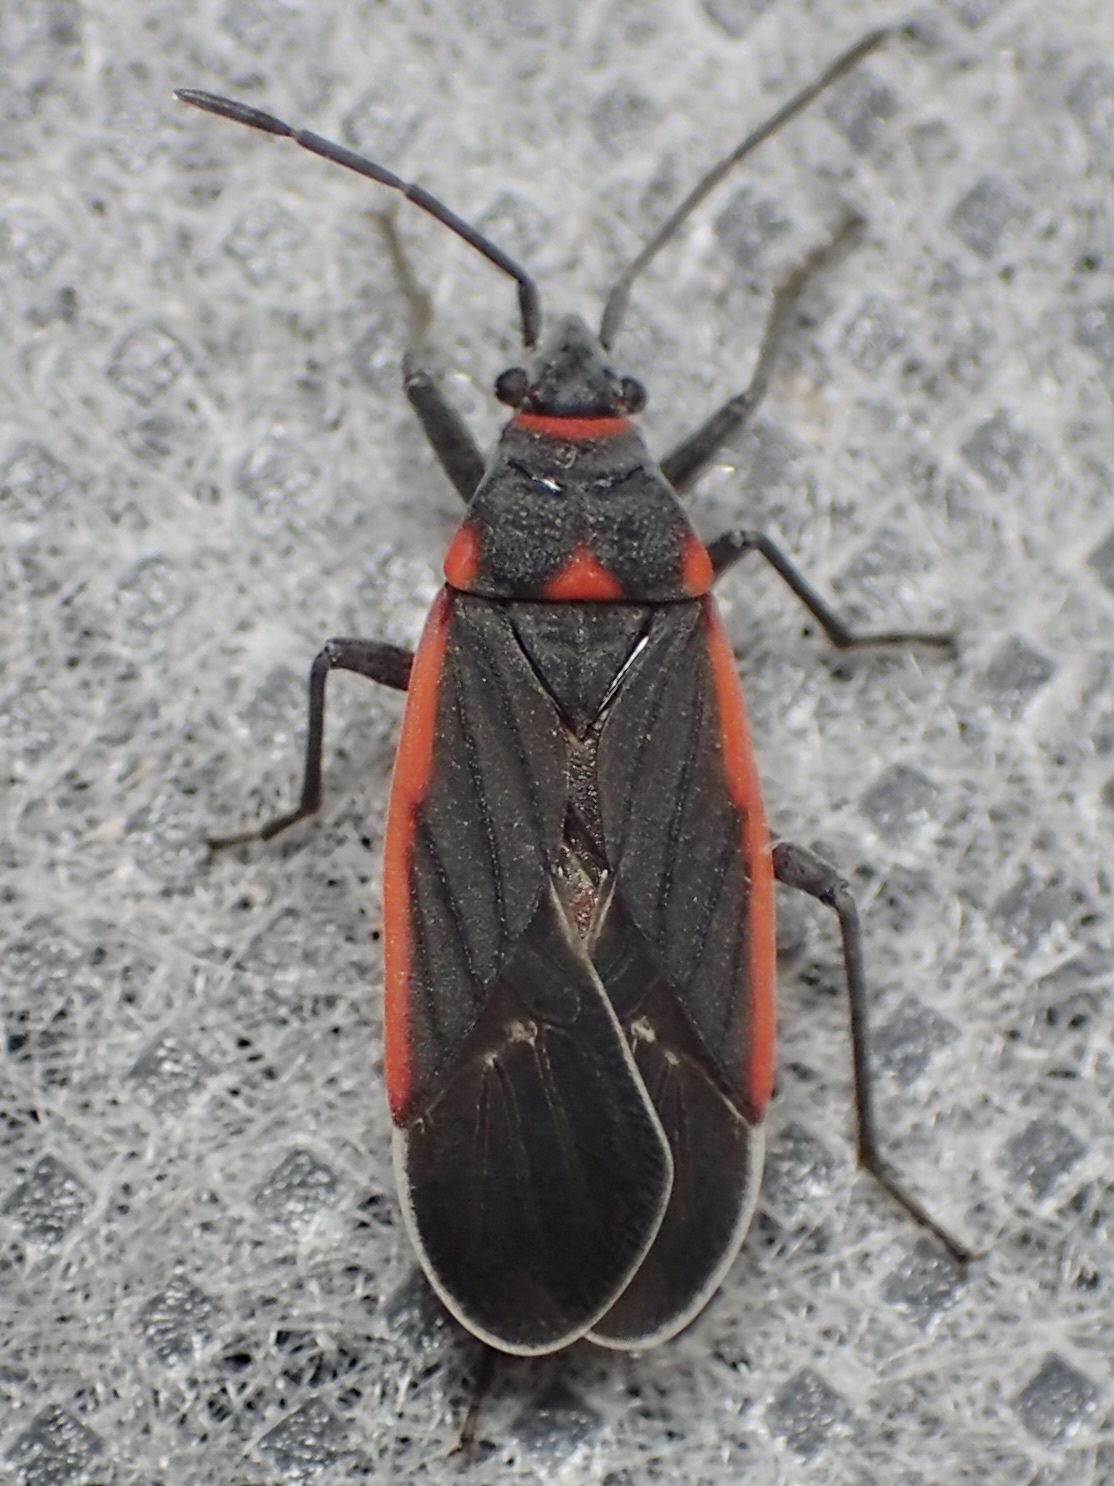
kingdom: Animalia
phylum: Arthropoda
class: Insecta
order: Hemiptera
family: Lygaeidae
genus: Melacoryphus
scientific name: Melacoryphus lateralis
